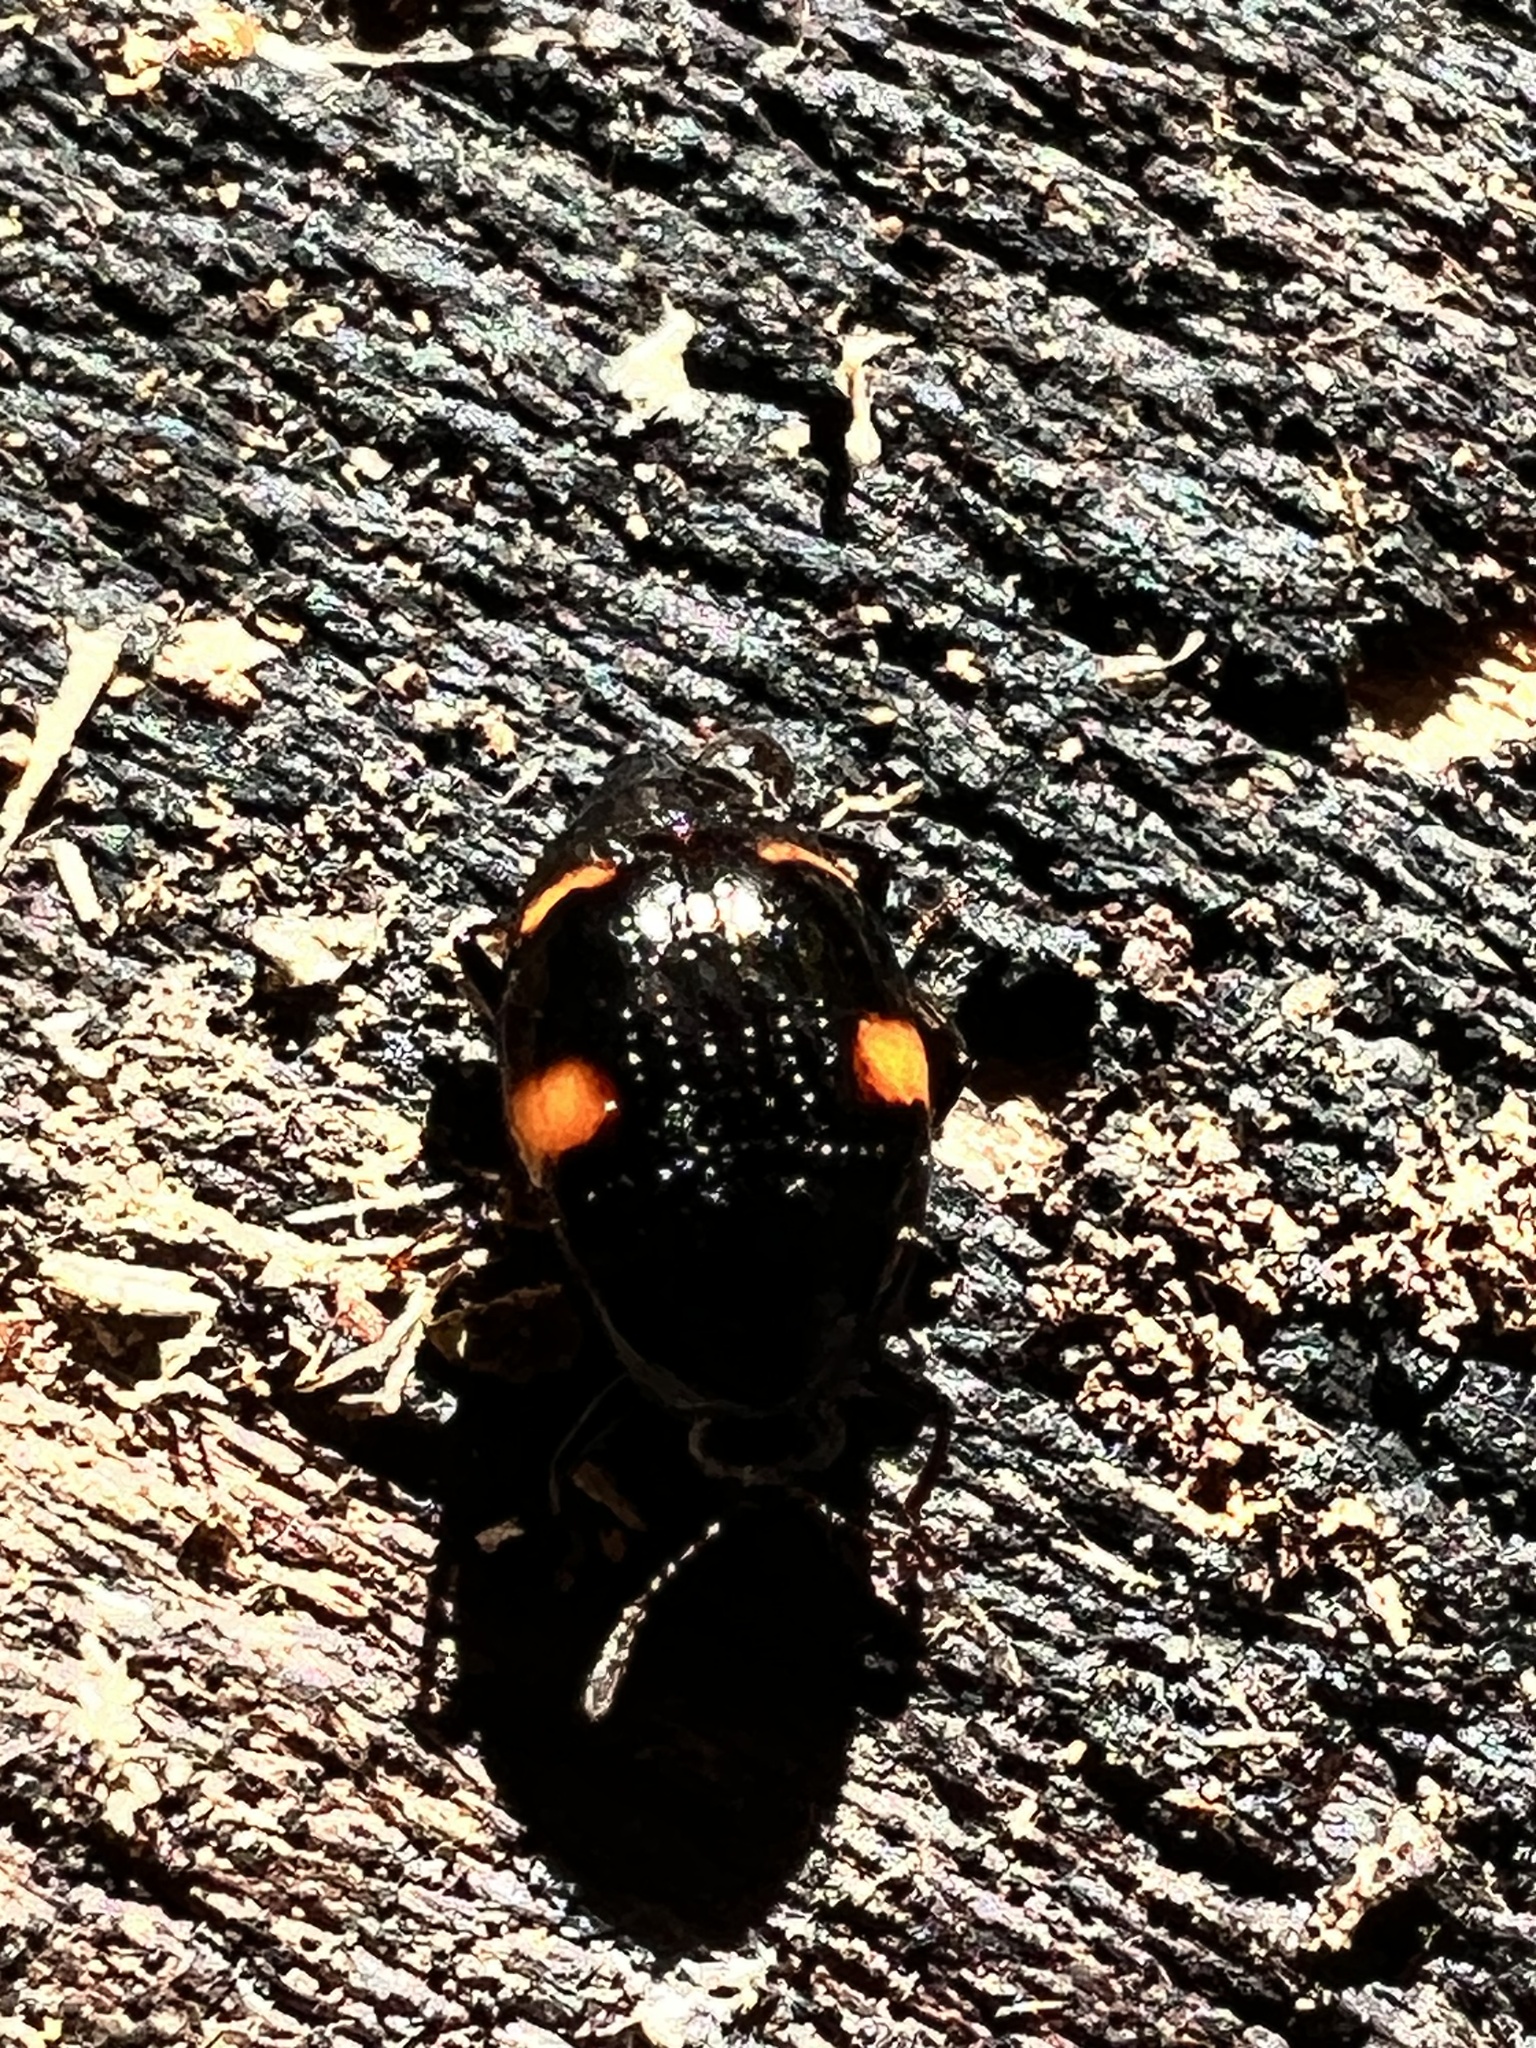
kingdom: Animalia
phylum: Arthropoda
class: Insecta
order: Coleoptera
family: Staphylinidae
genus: Scaphidium
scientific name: Scaphidium quadriguttatum
